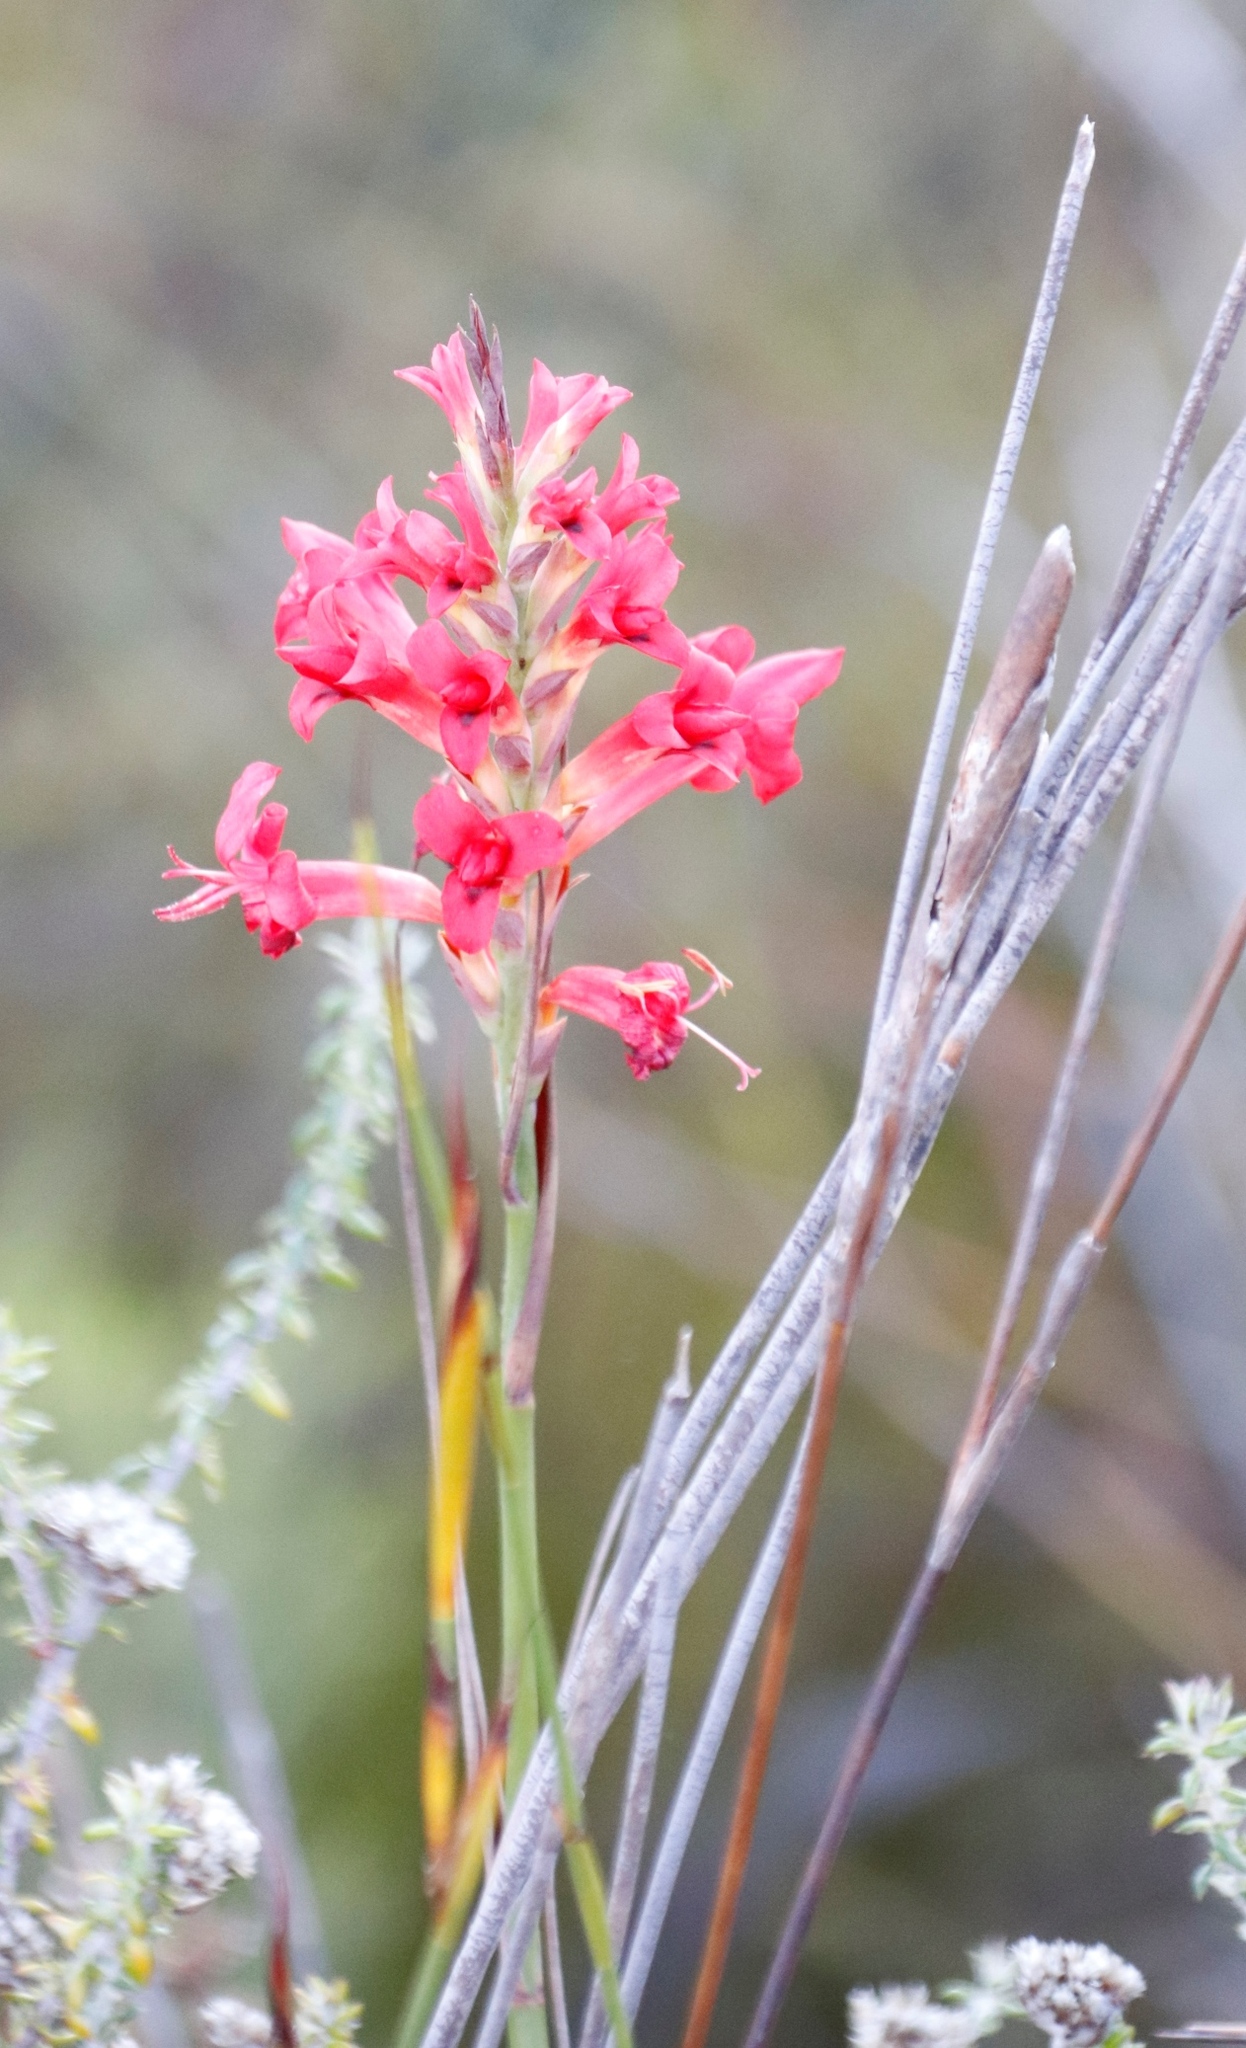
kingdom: Plantae
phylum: Tracheophyta
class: Liliopsida
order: Asparagales
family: Iridaceae
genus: Tritoniopsis
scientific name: Tritoniopsis triticea
